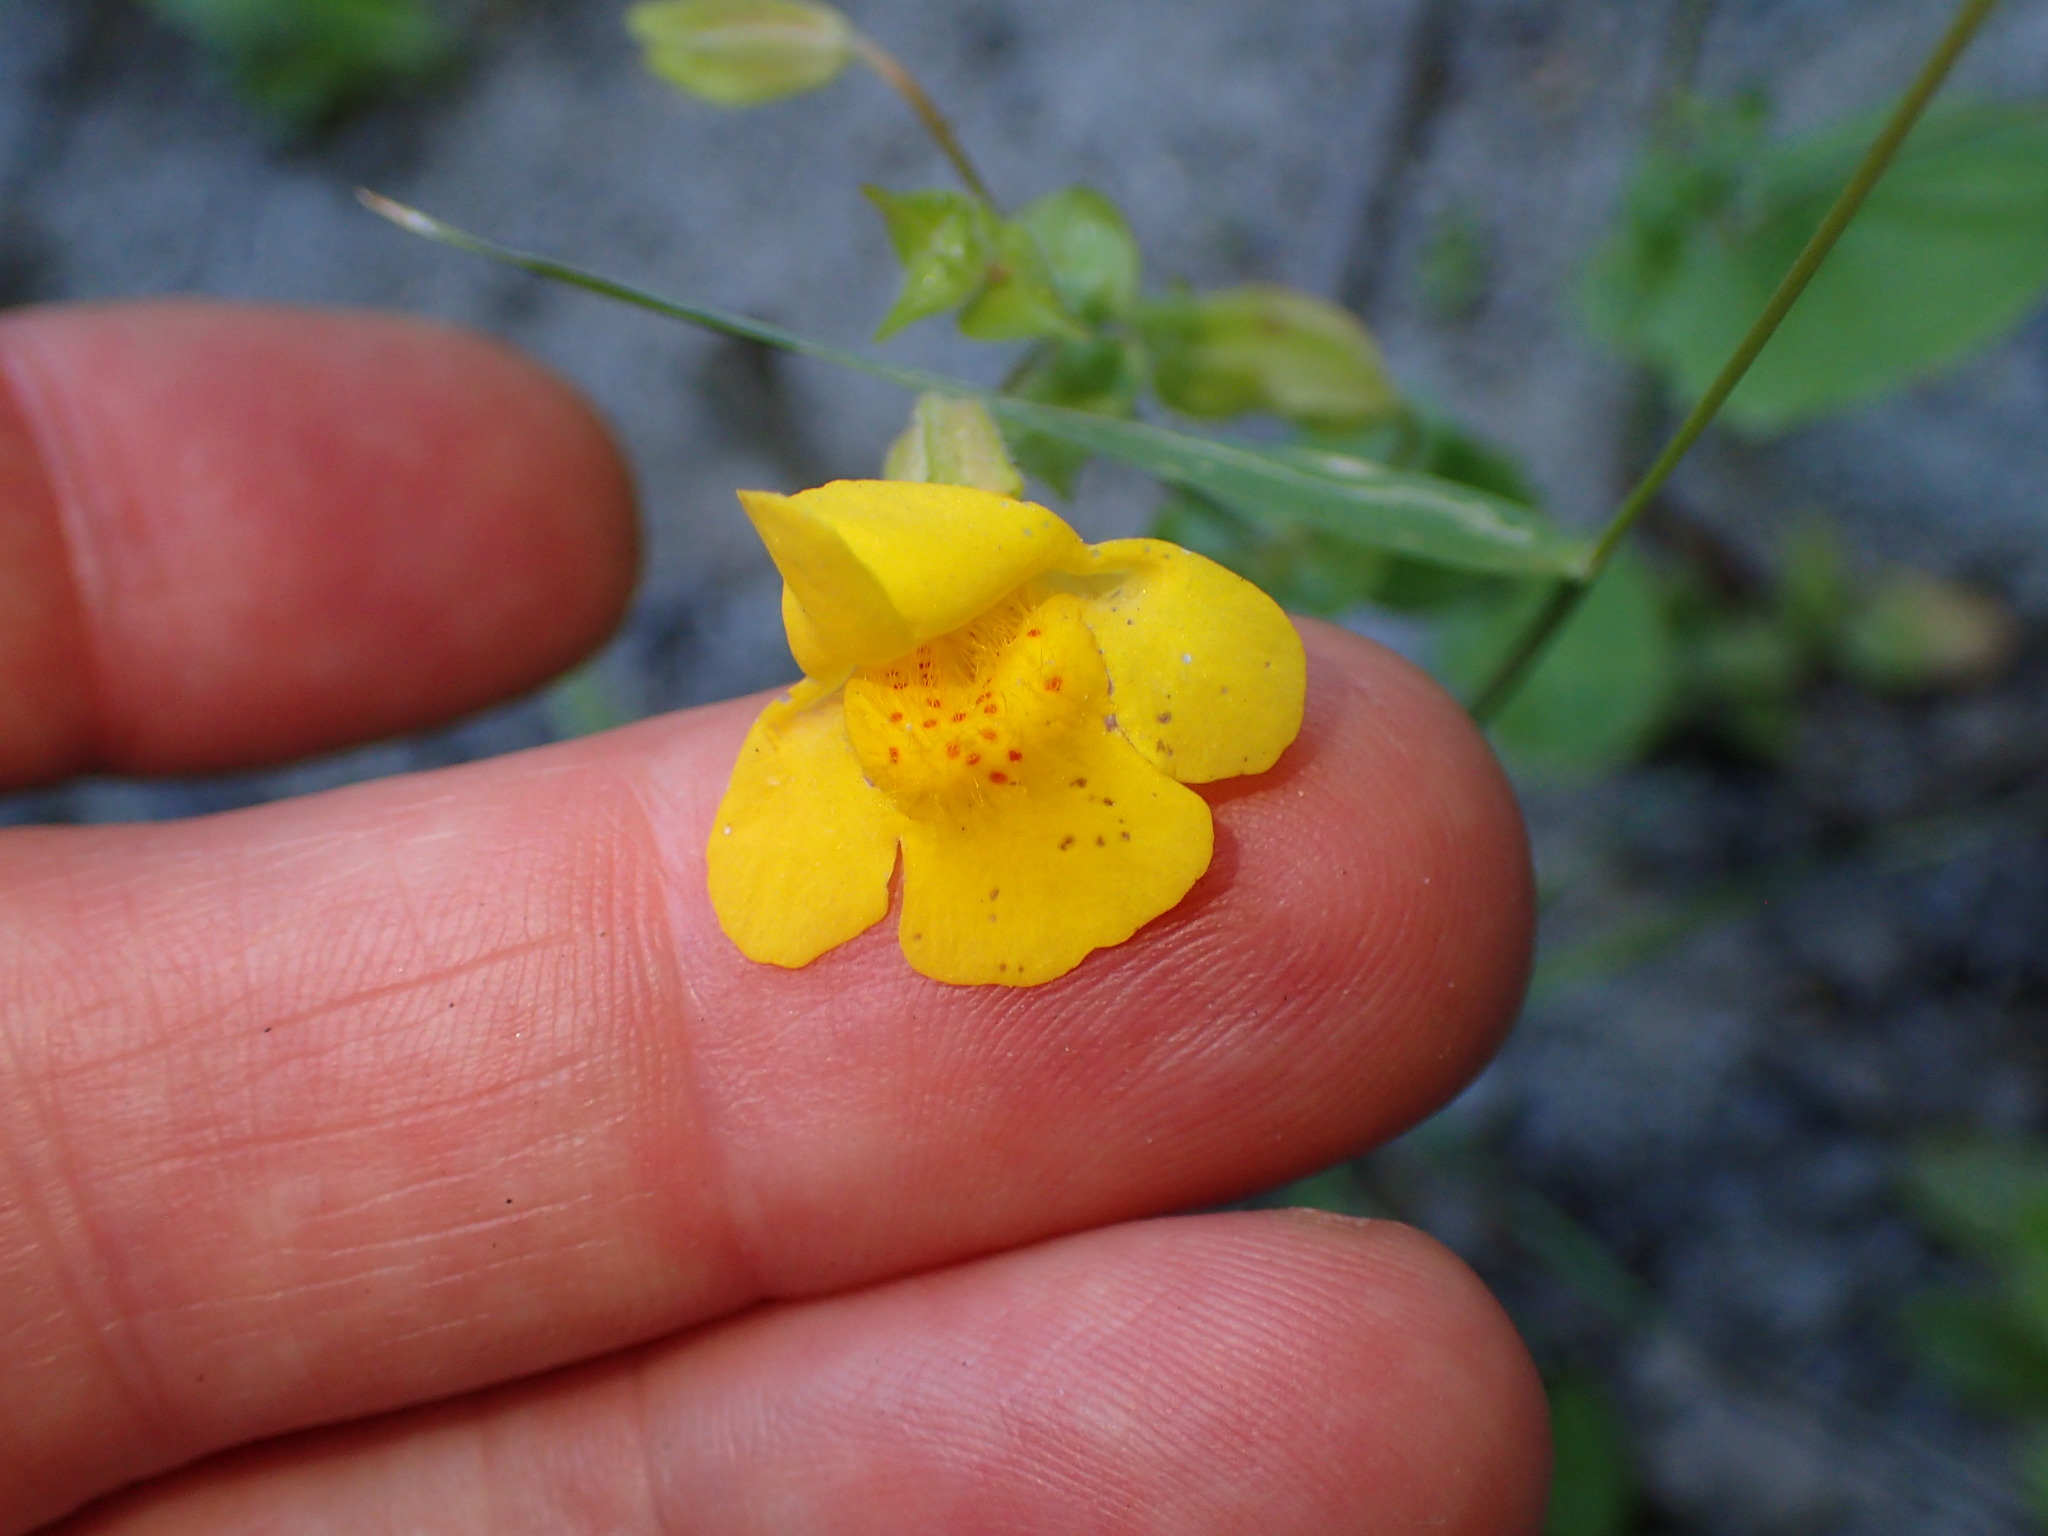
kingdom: Plantae
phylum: Tracheophyta
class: Magnoliopsida
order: Lamiales
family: Phrymaceae
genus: Erythranthe
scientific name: Erythranthe guttata
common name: Monkeyflower
